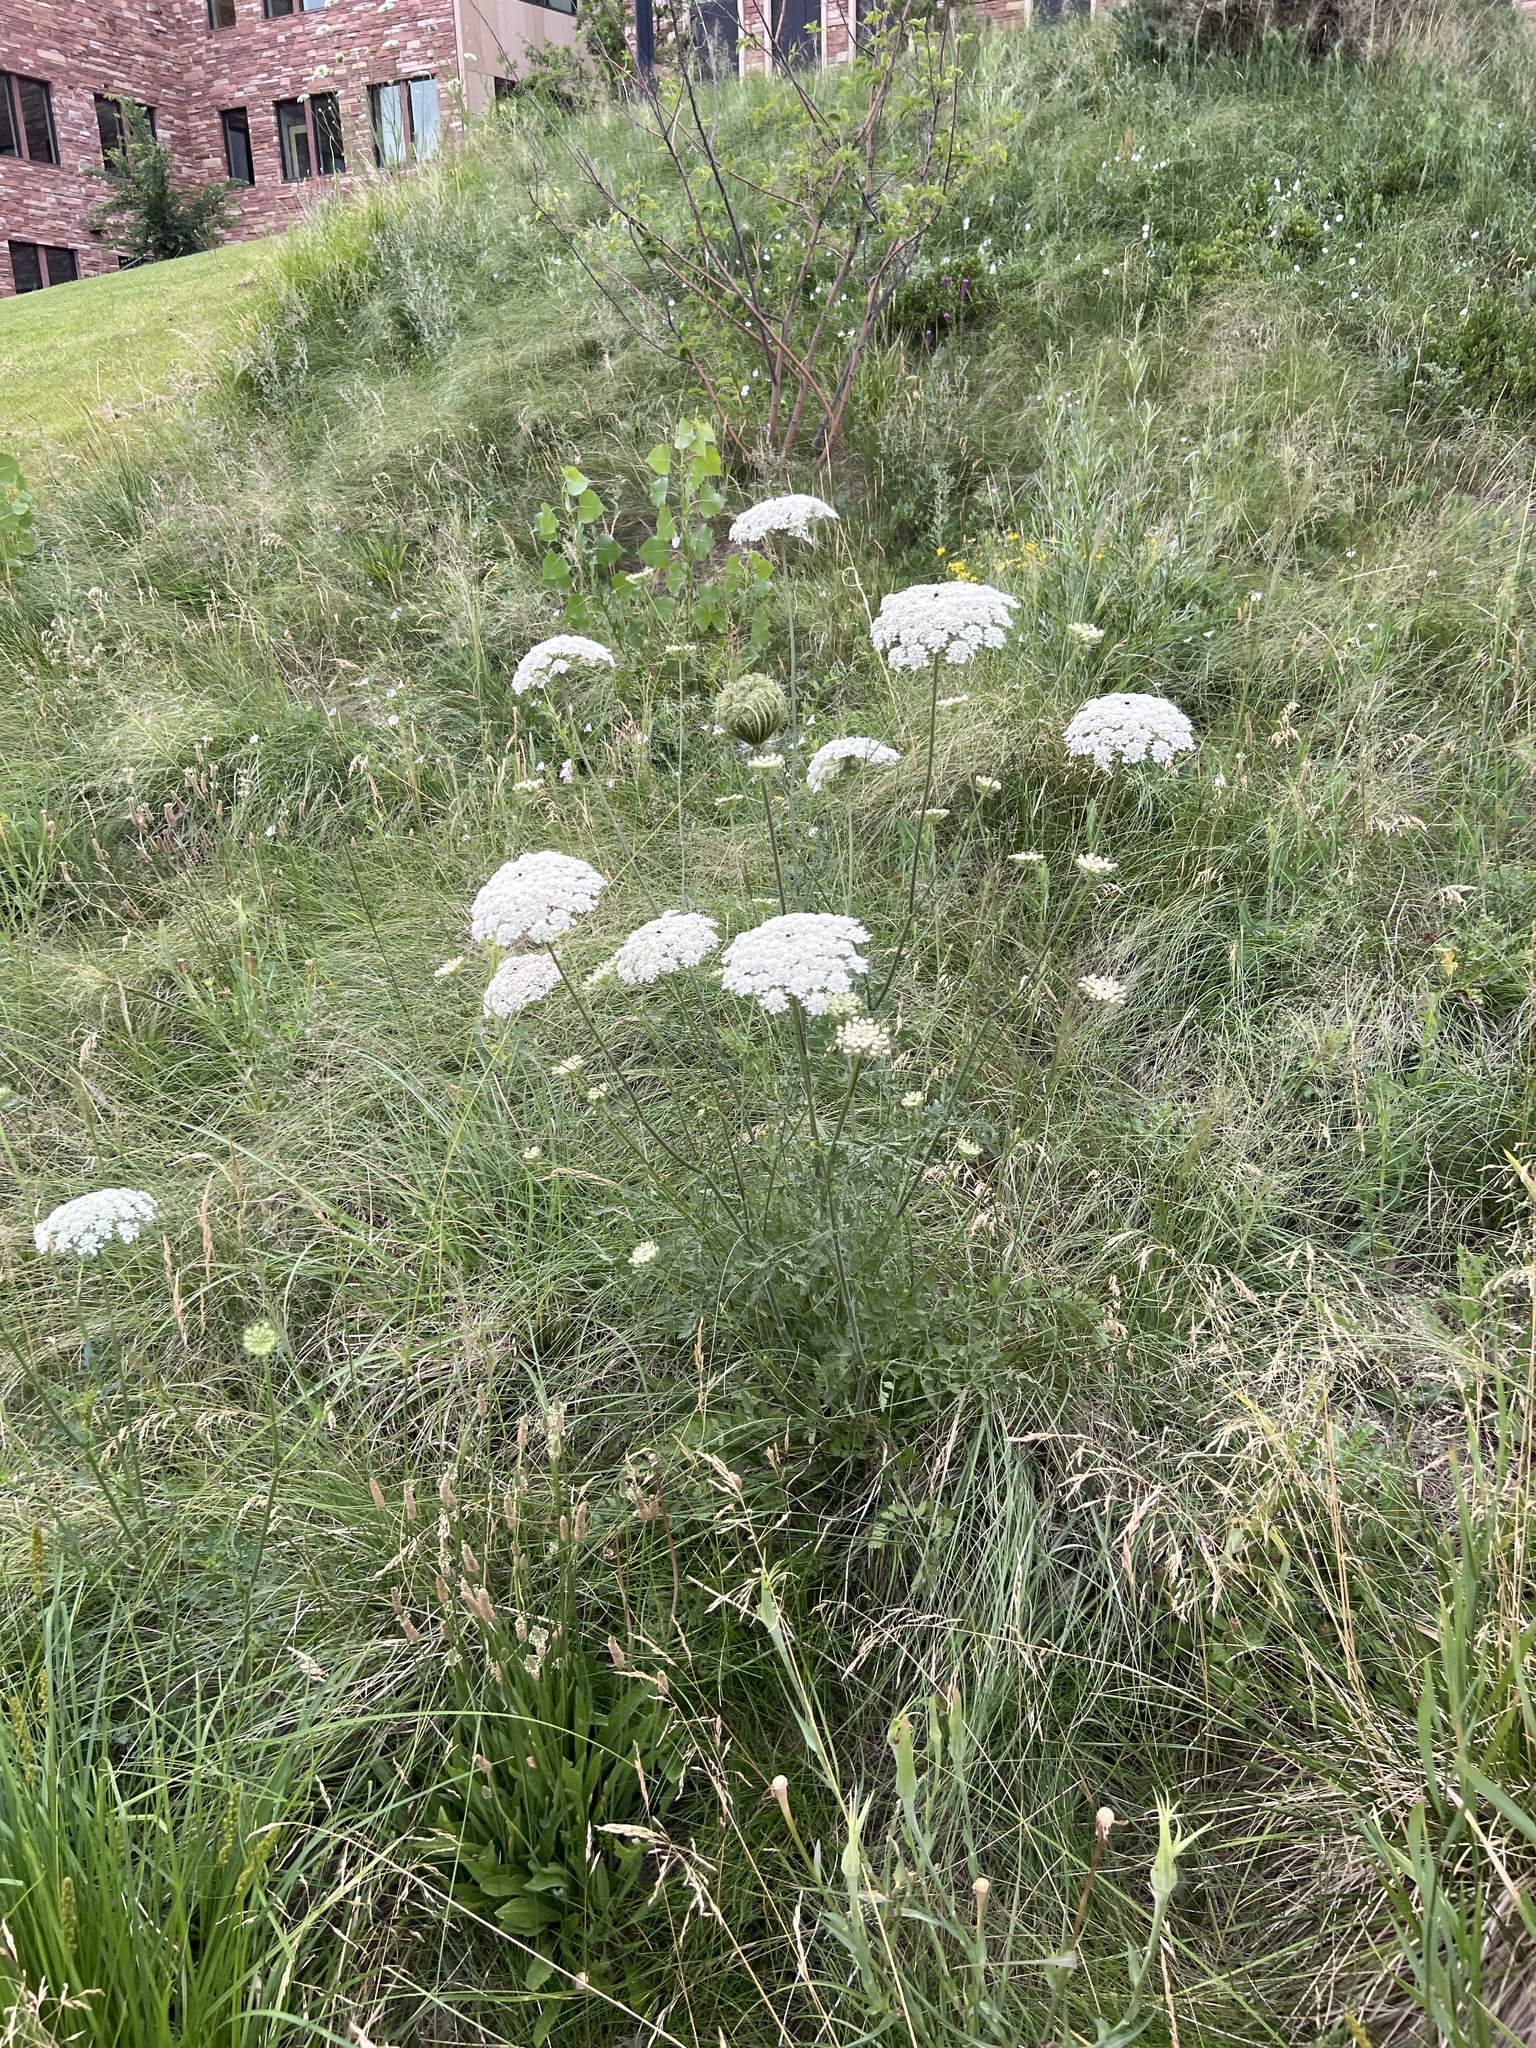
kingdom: Plantae
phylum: Tracheophyta
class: Magnoliopsida
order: Apiales
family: Apiaceae
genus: Daucus
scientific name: Daucus carota
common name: Wild carrot
